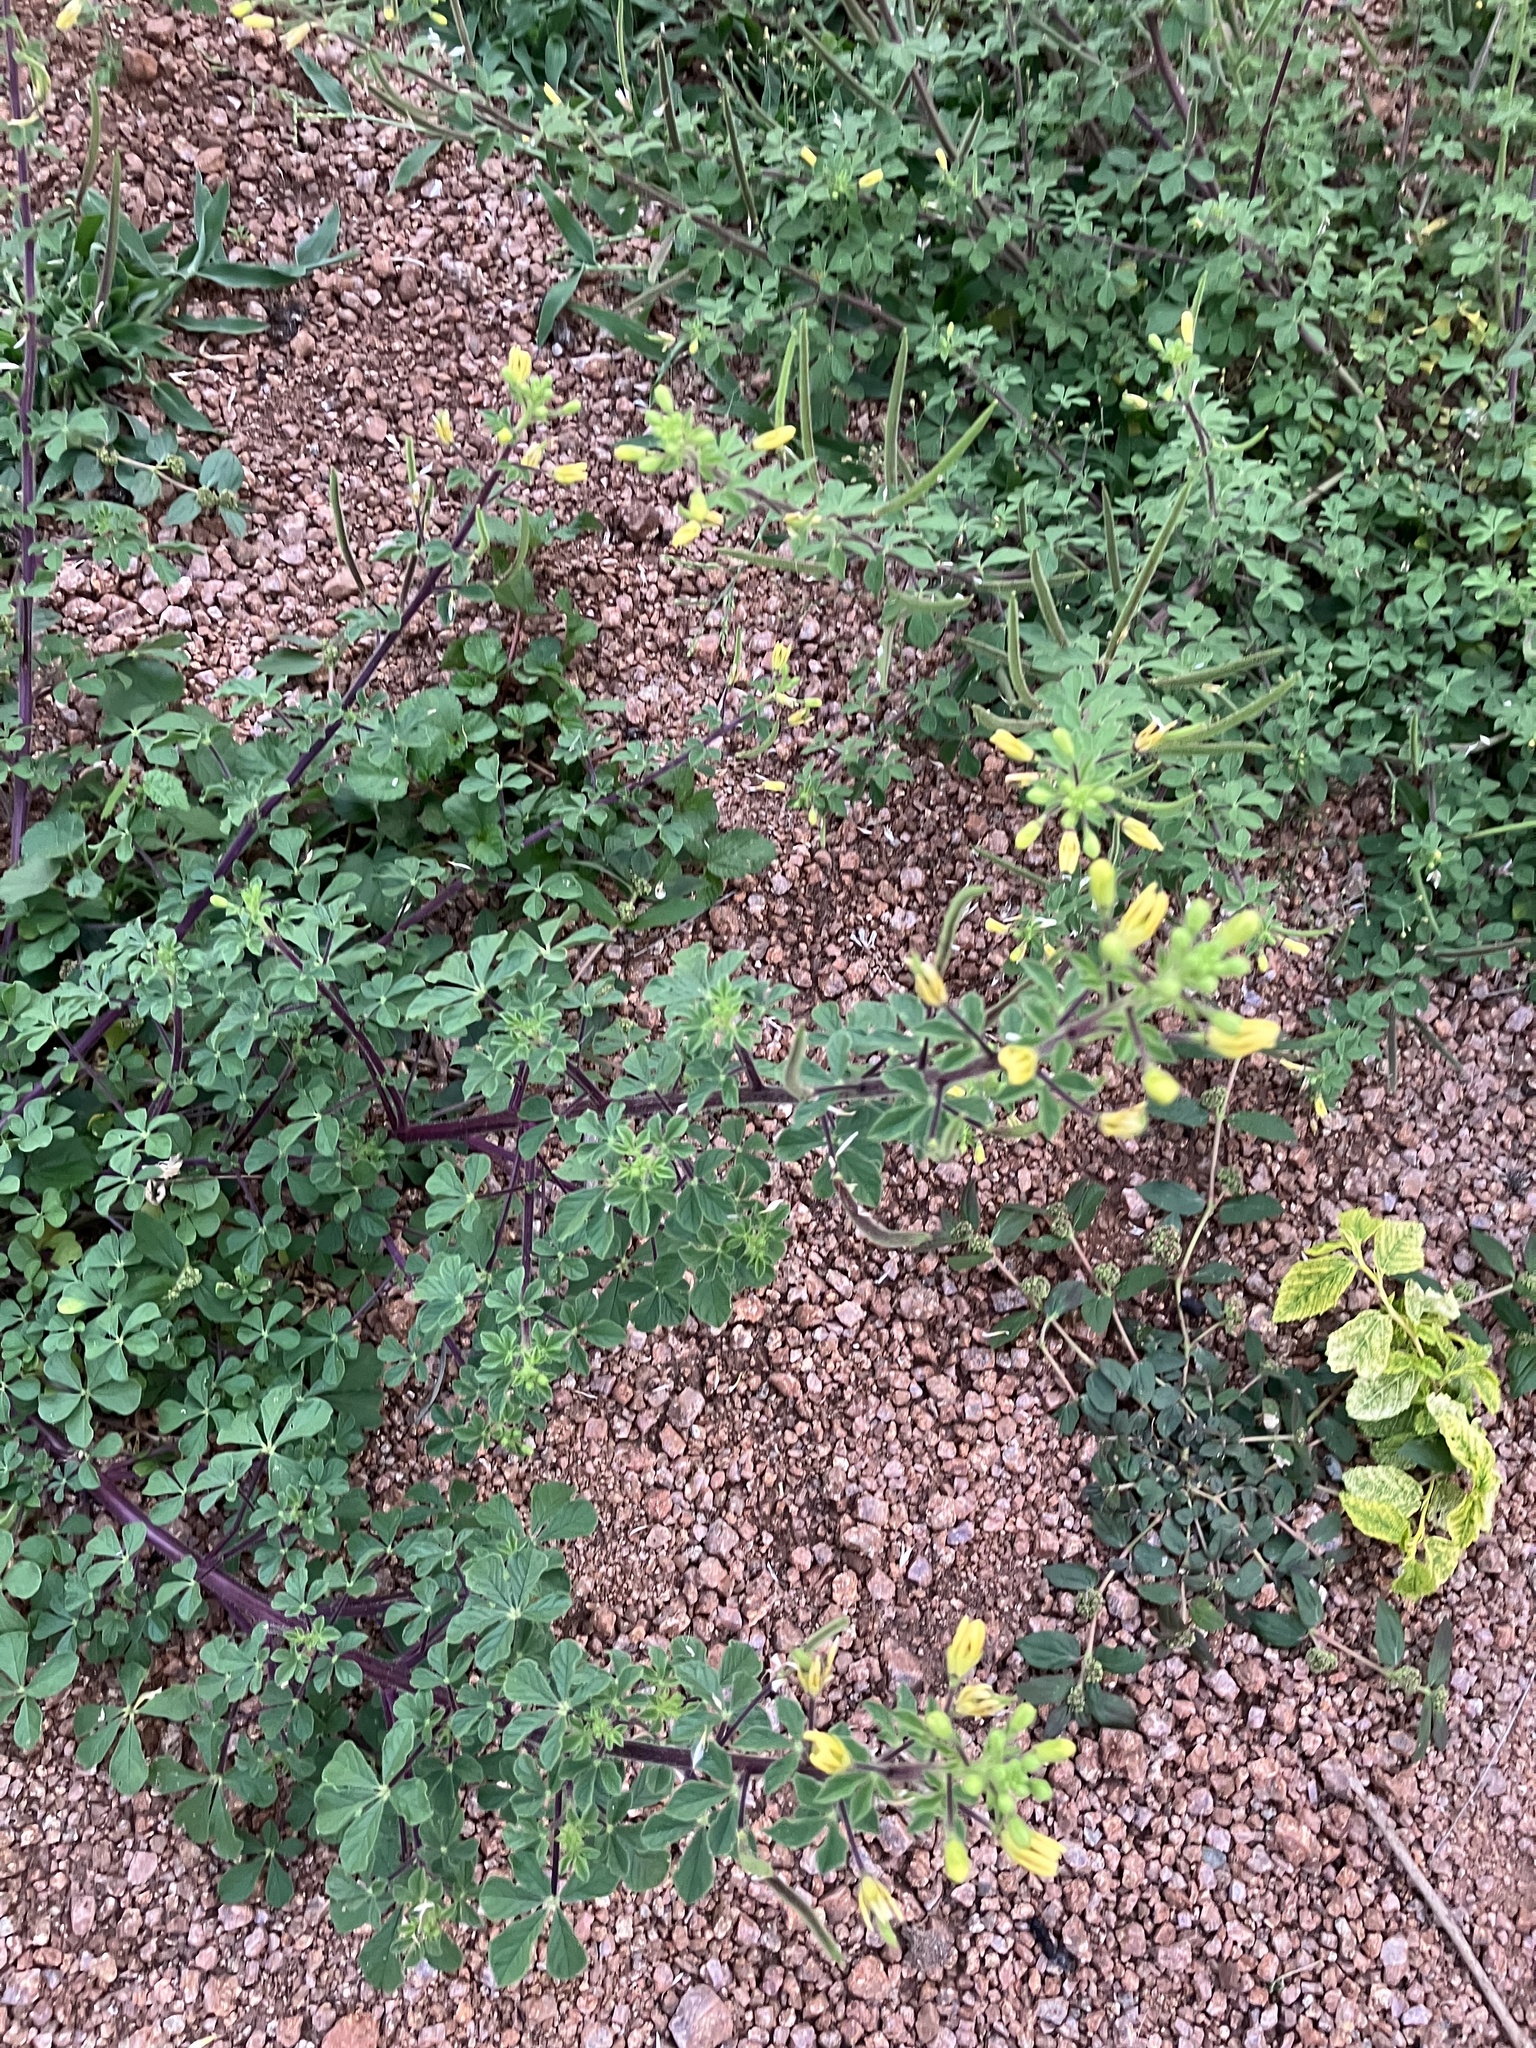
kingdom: Plantae
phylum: Tracheophyta
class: Magnoliopsida
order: Brassicales
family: Cleomaceae
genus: Arivela
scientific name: Arivela viscosa
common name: Asian spiderflower
